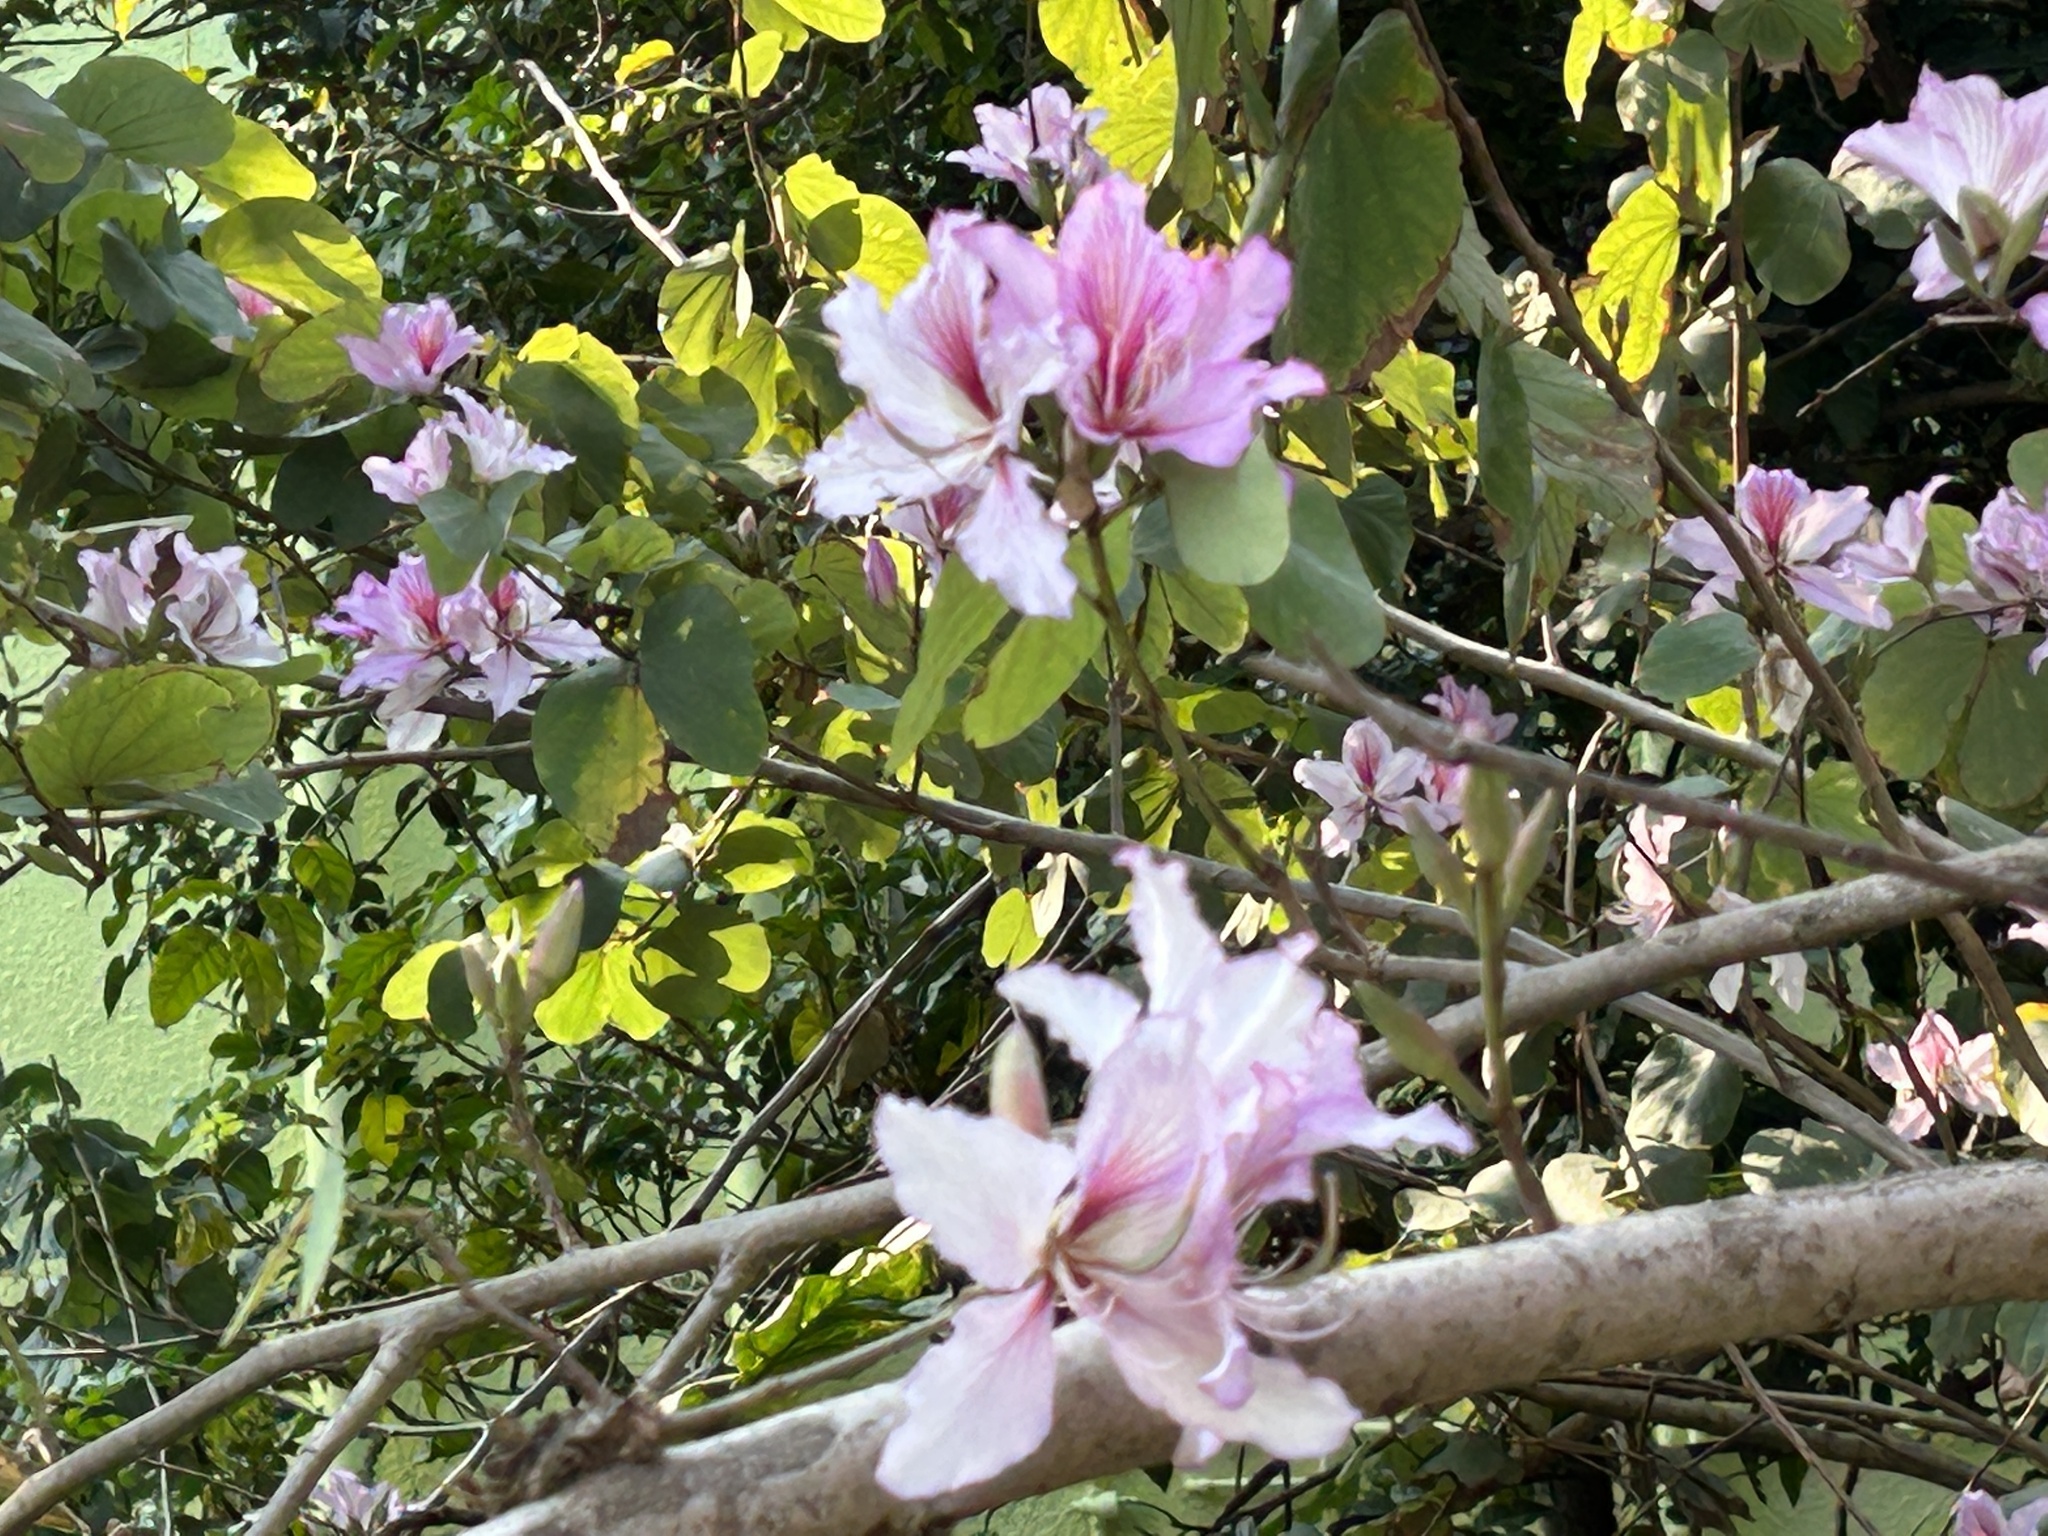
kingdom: Plantae
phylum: Tracheophyta
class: Magnoliopsida
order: Fabales
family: Fabaceae
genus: Bauhinia
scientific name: Bauhinia variegata
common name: Mountain ebony
